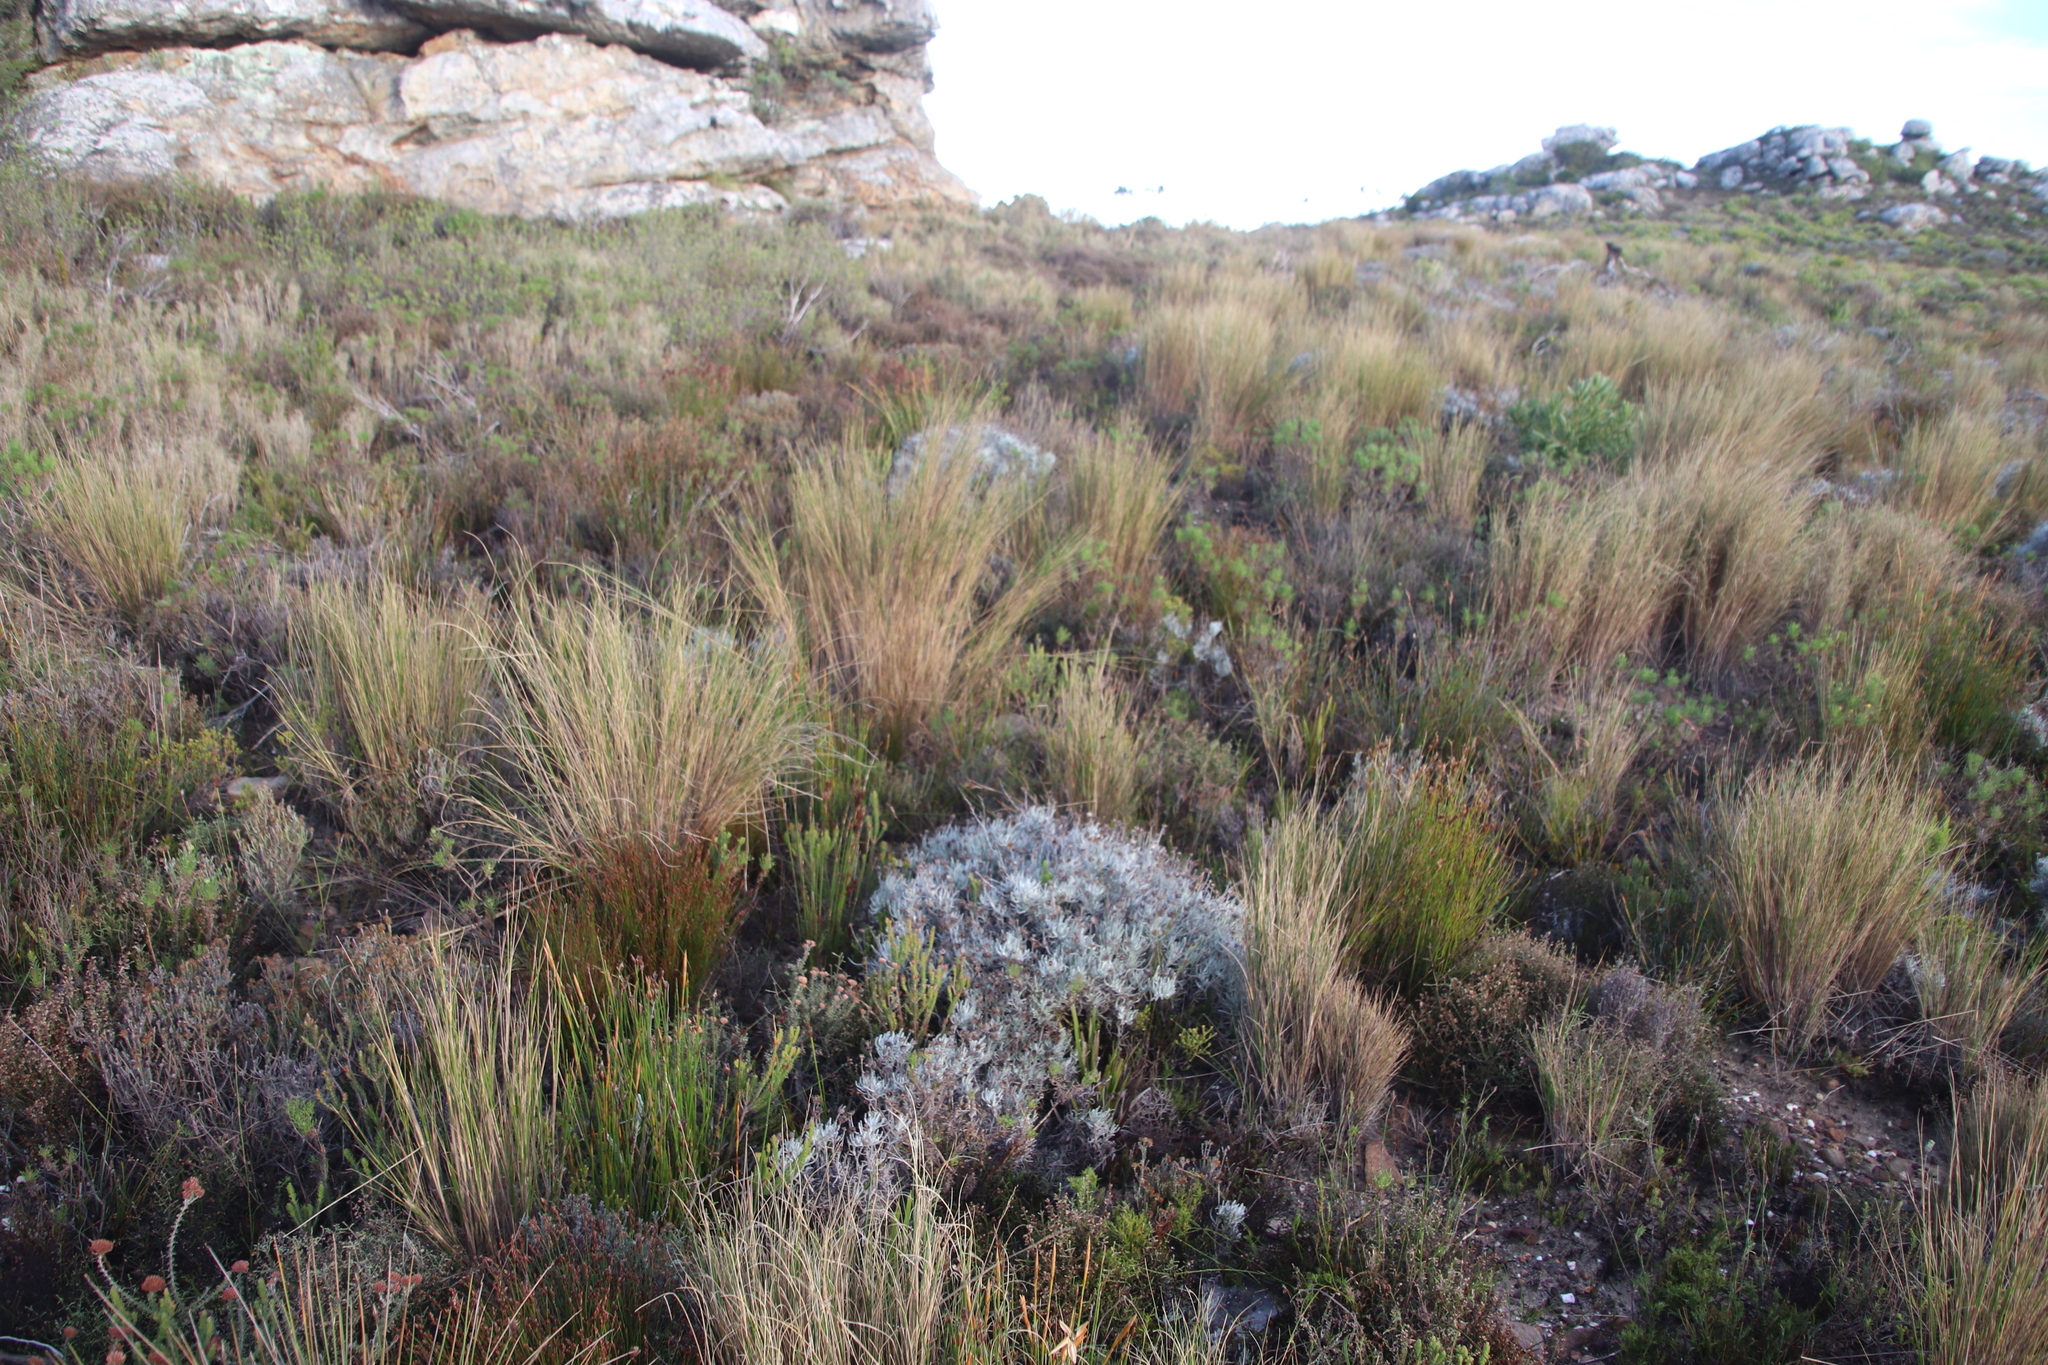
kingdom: Plantae
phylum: Tracheophyta
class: Liliopsida
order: Poales
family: Poaceae
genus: Pentameris
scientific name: Pentameris macrocalycina
